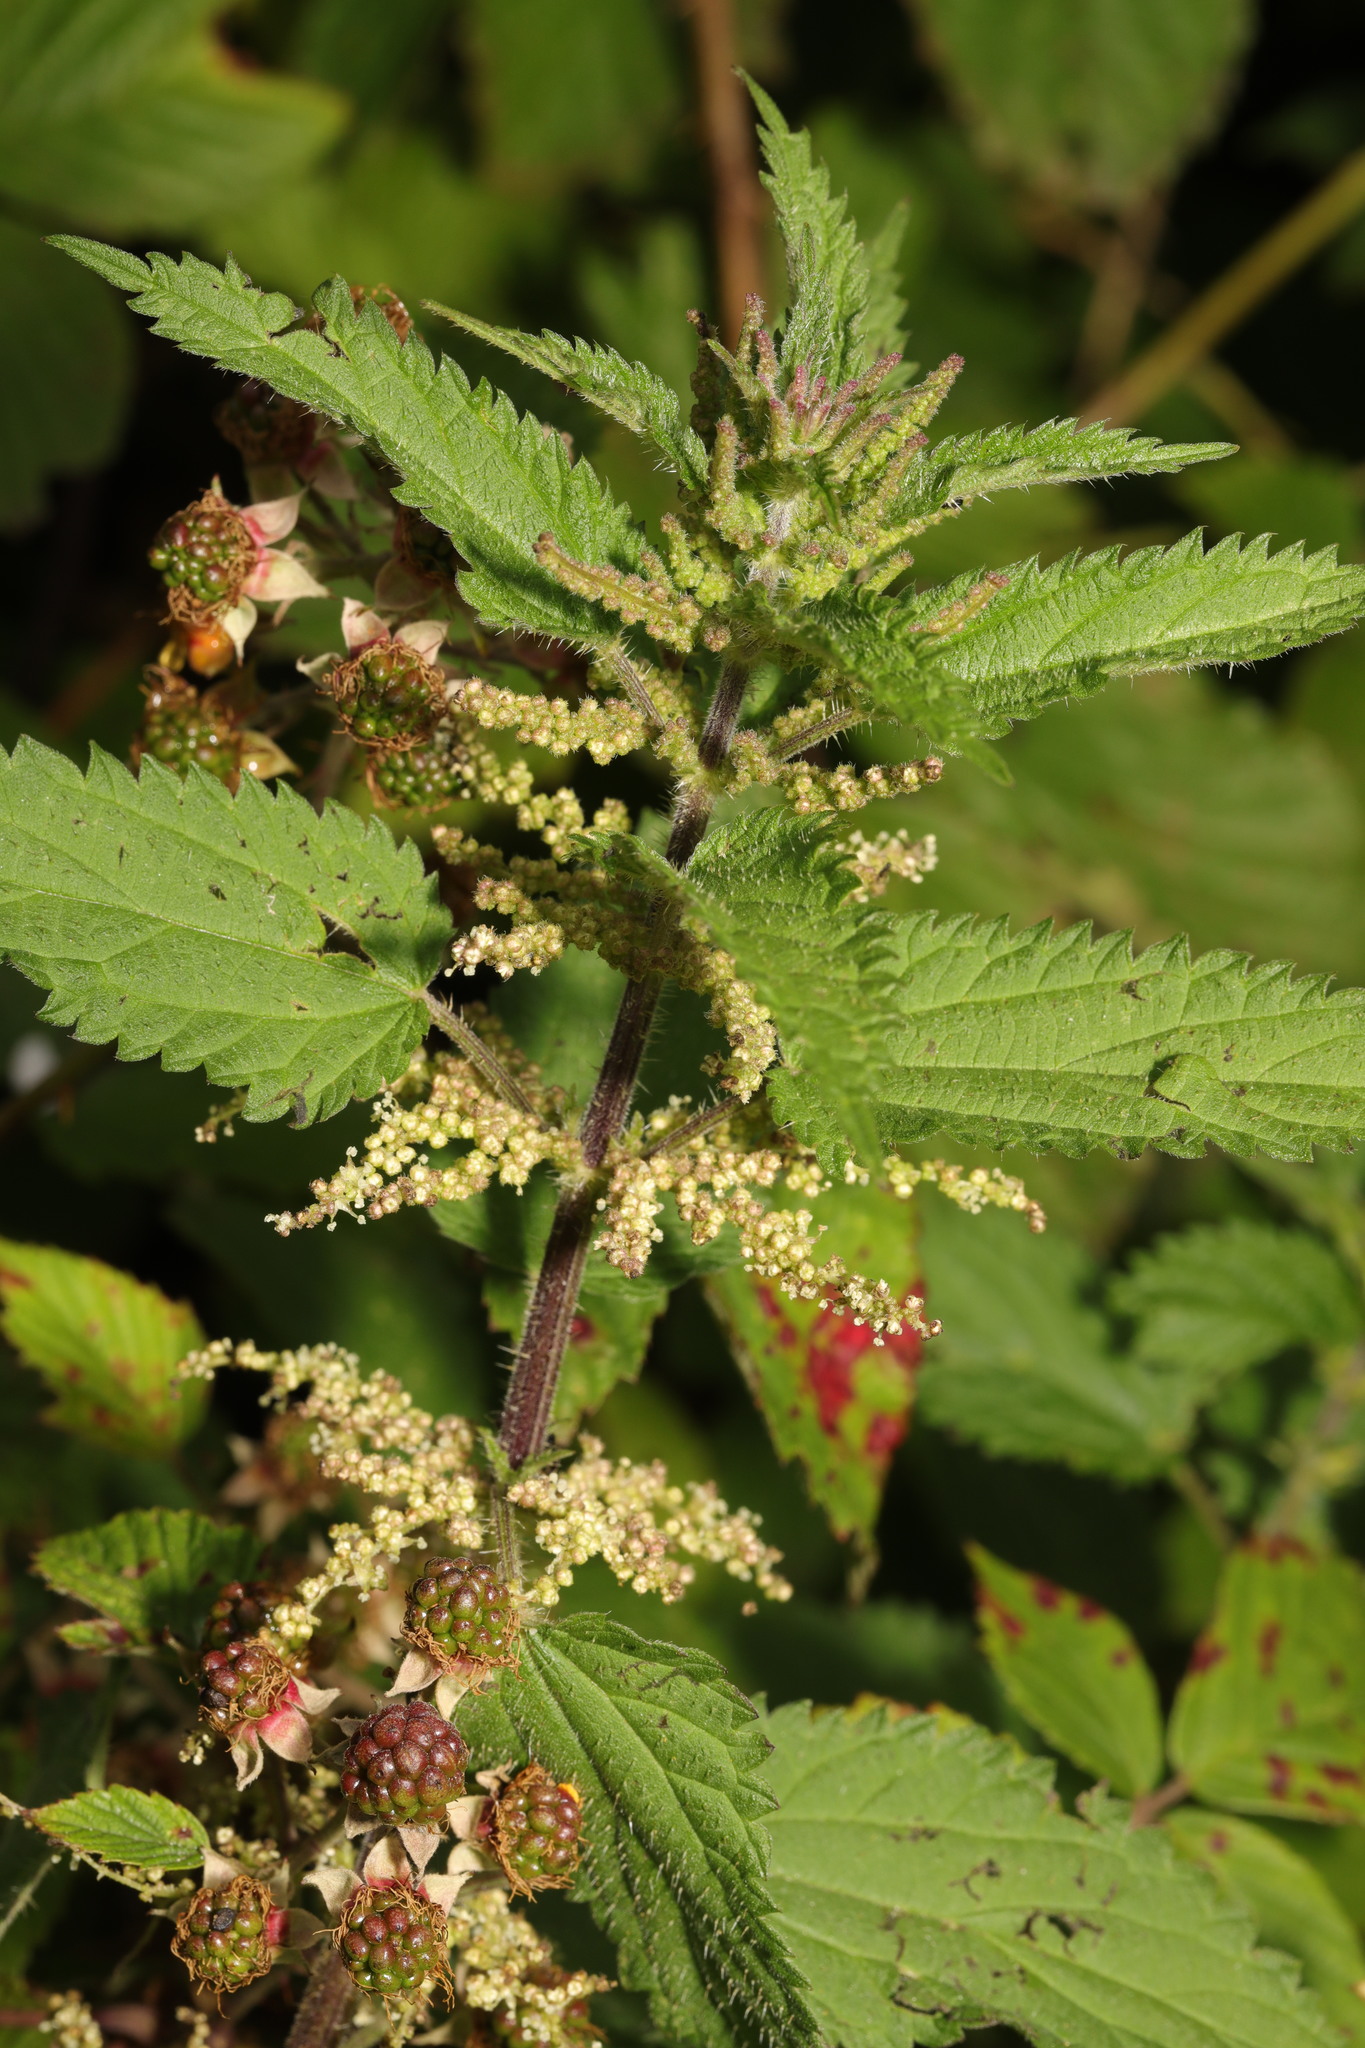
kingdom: Plantae
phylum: Tracheophyta
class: Magnoliopsida
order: Rosales
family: Urticaceae
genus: Urtica
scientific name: Urtica dioica
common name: Common nettle
